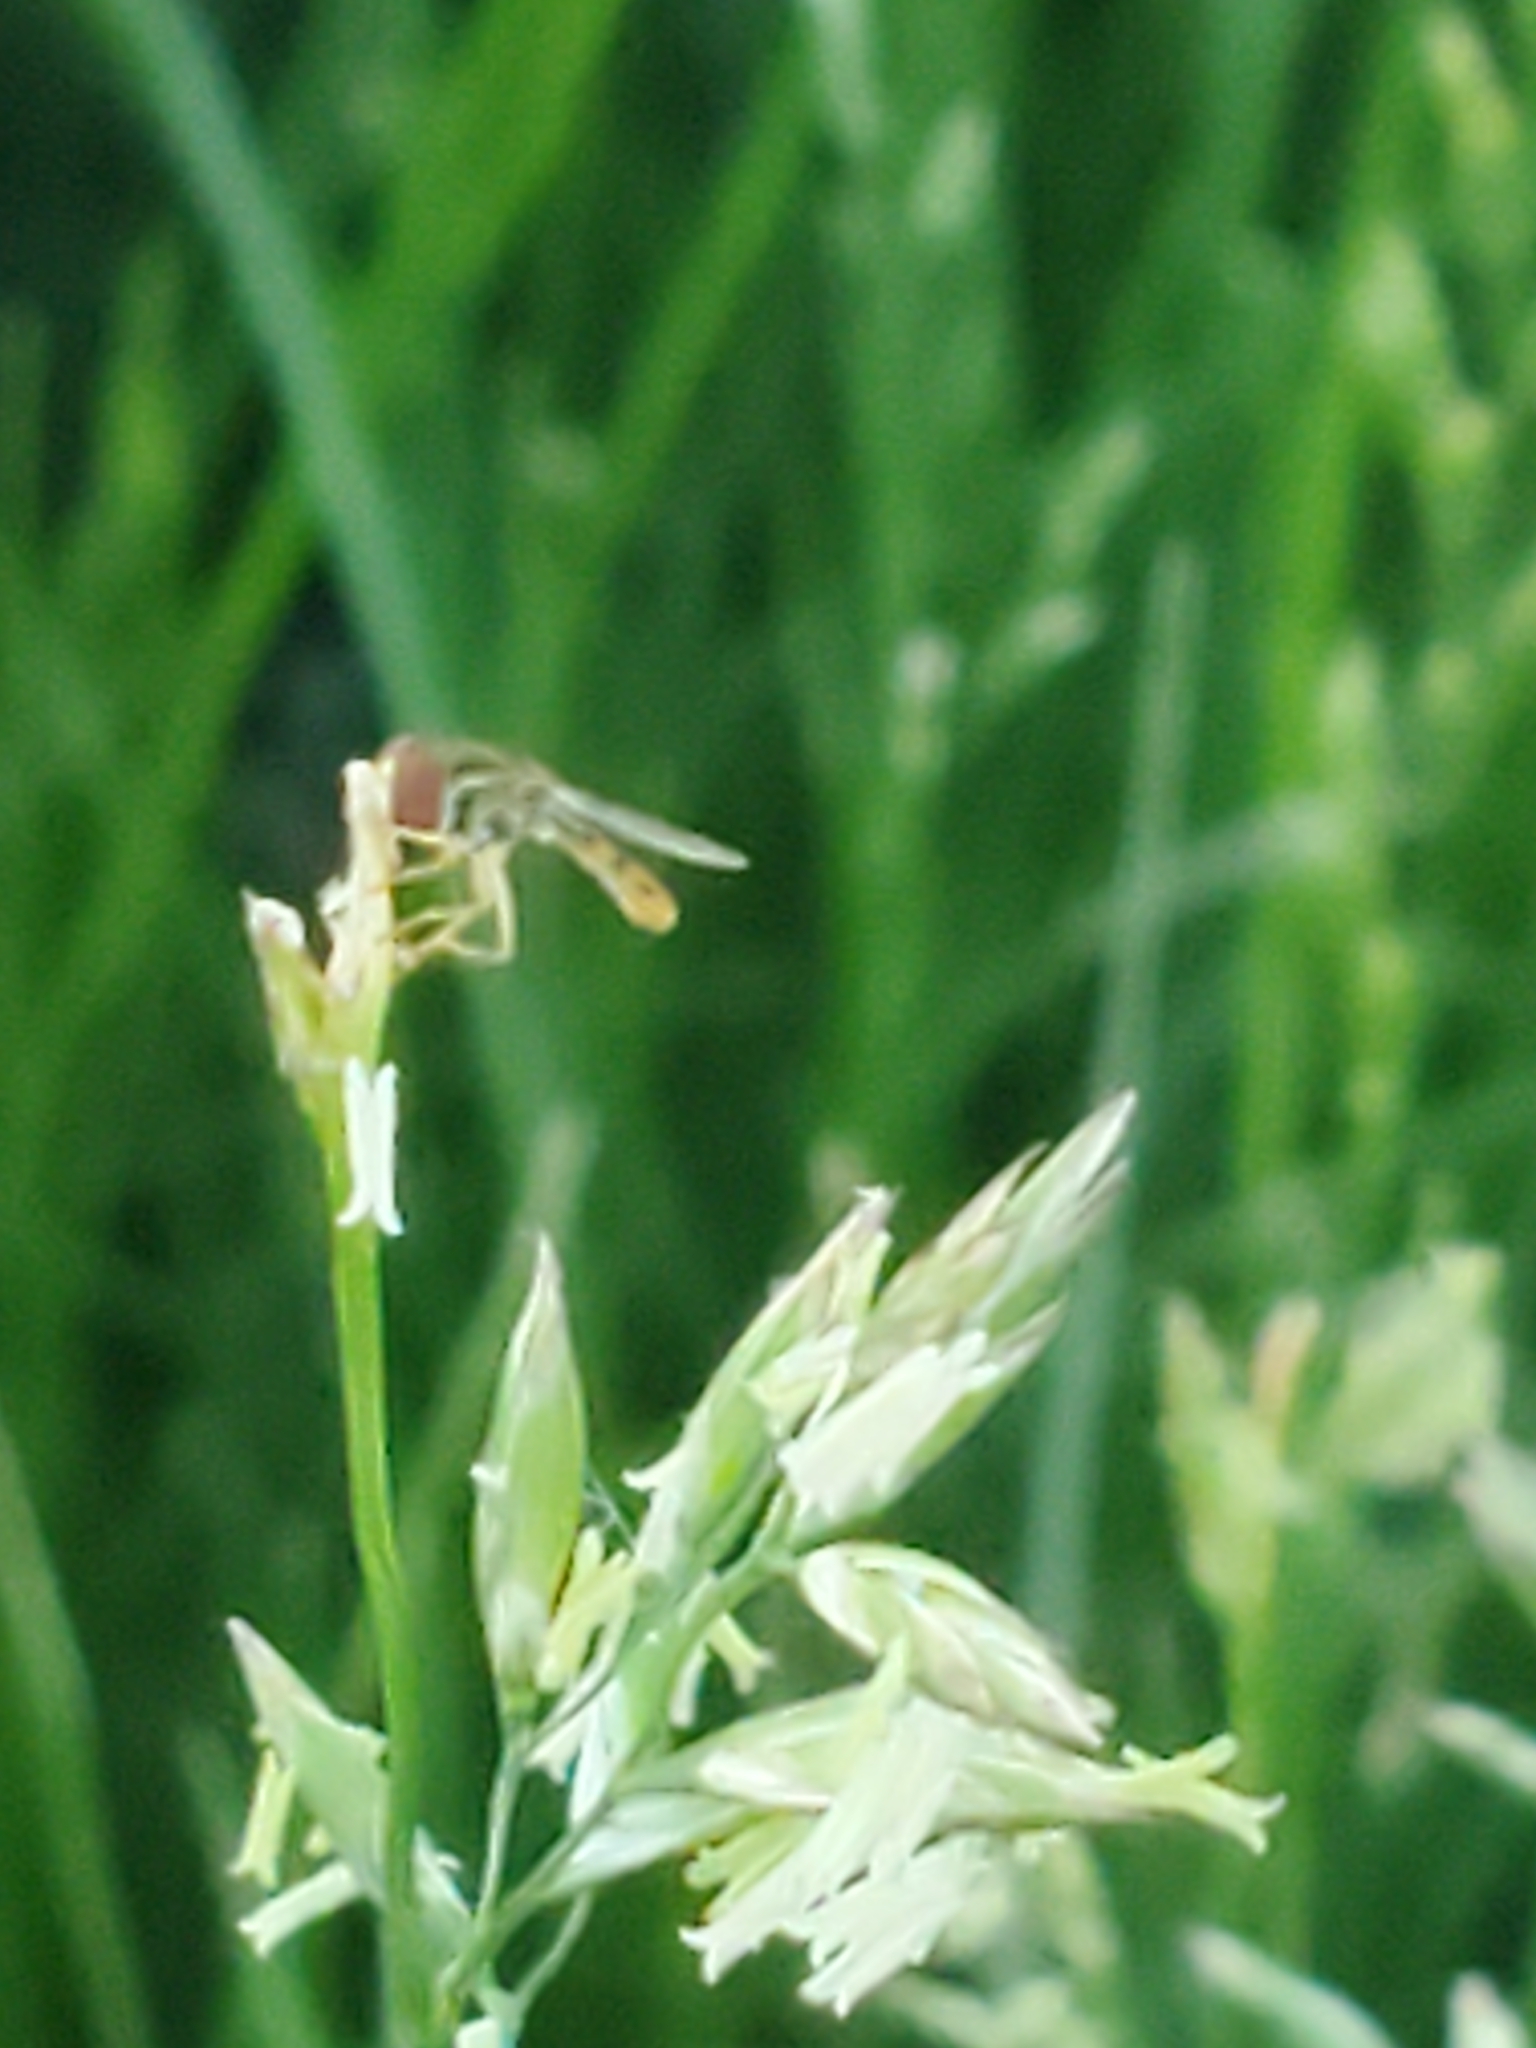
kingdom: Animalia
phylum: Arthropoda
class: Insecta
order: Diptera
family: Syrphidae
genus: Toxomerus
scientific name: Toxomerus marginatus
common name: Syrphid fly
